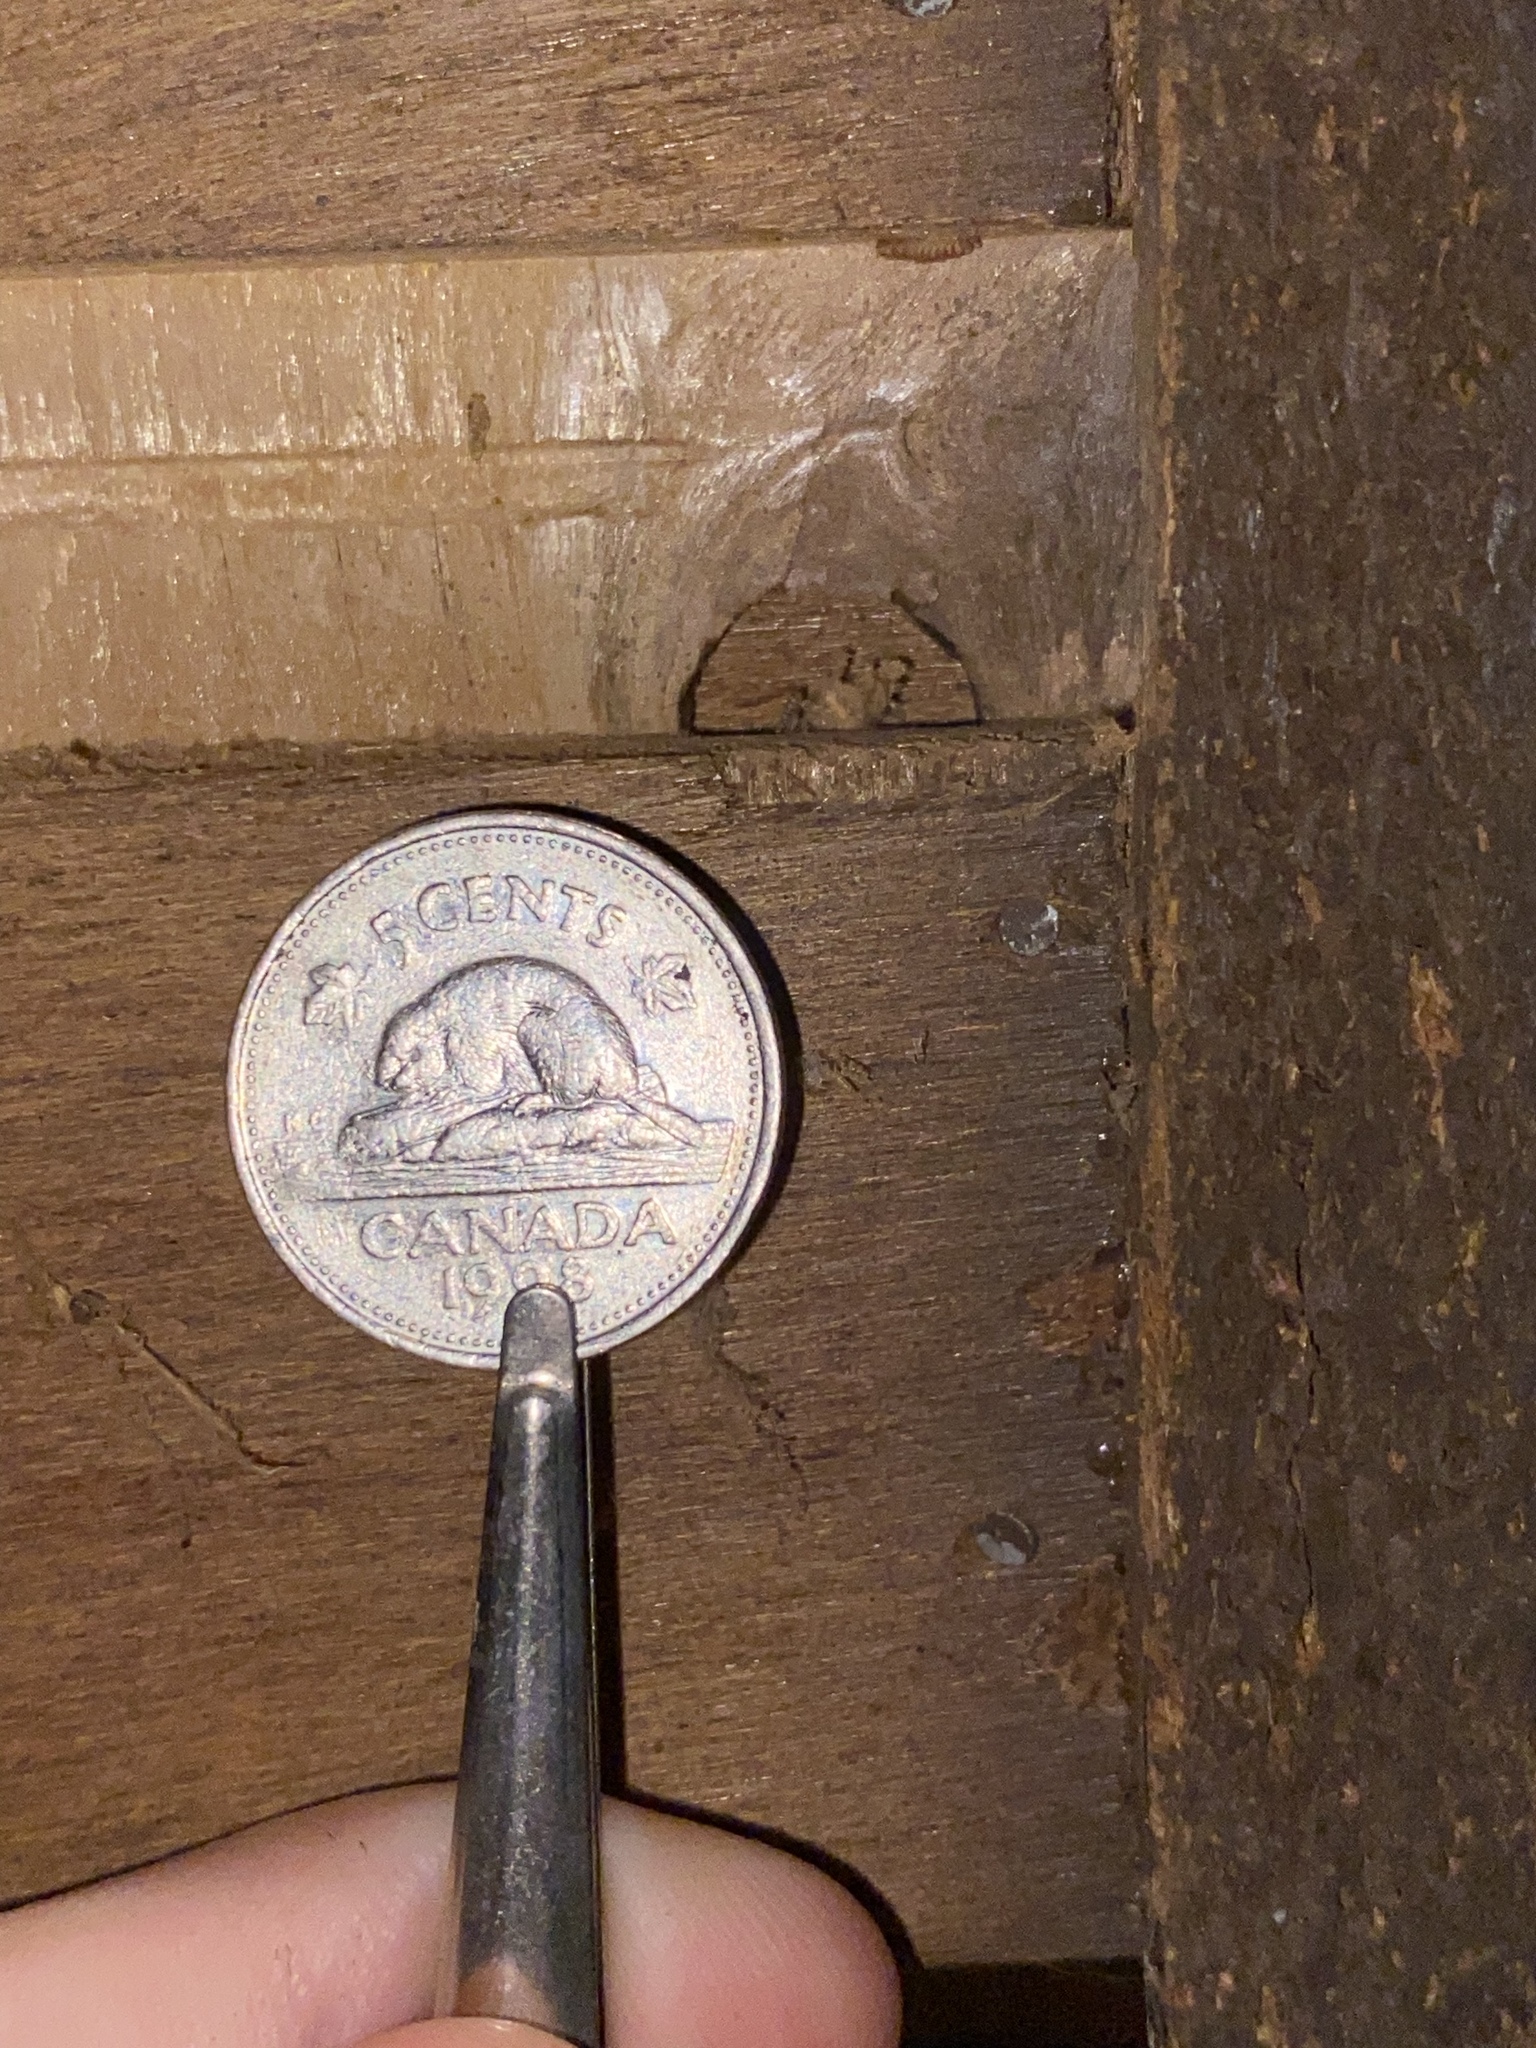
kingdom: Animalia
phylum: Arthropoda
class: Arachnida
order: Araneae
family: Pholcidae
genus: Pholcophora
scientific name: Pholcophora americana
